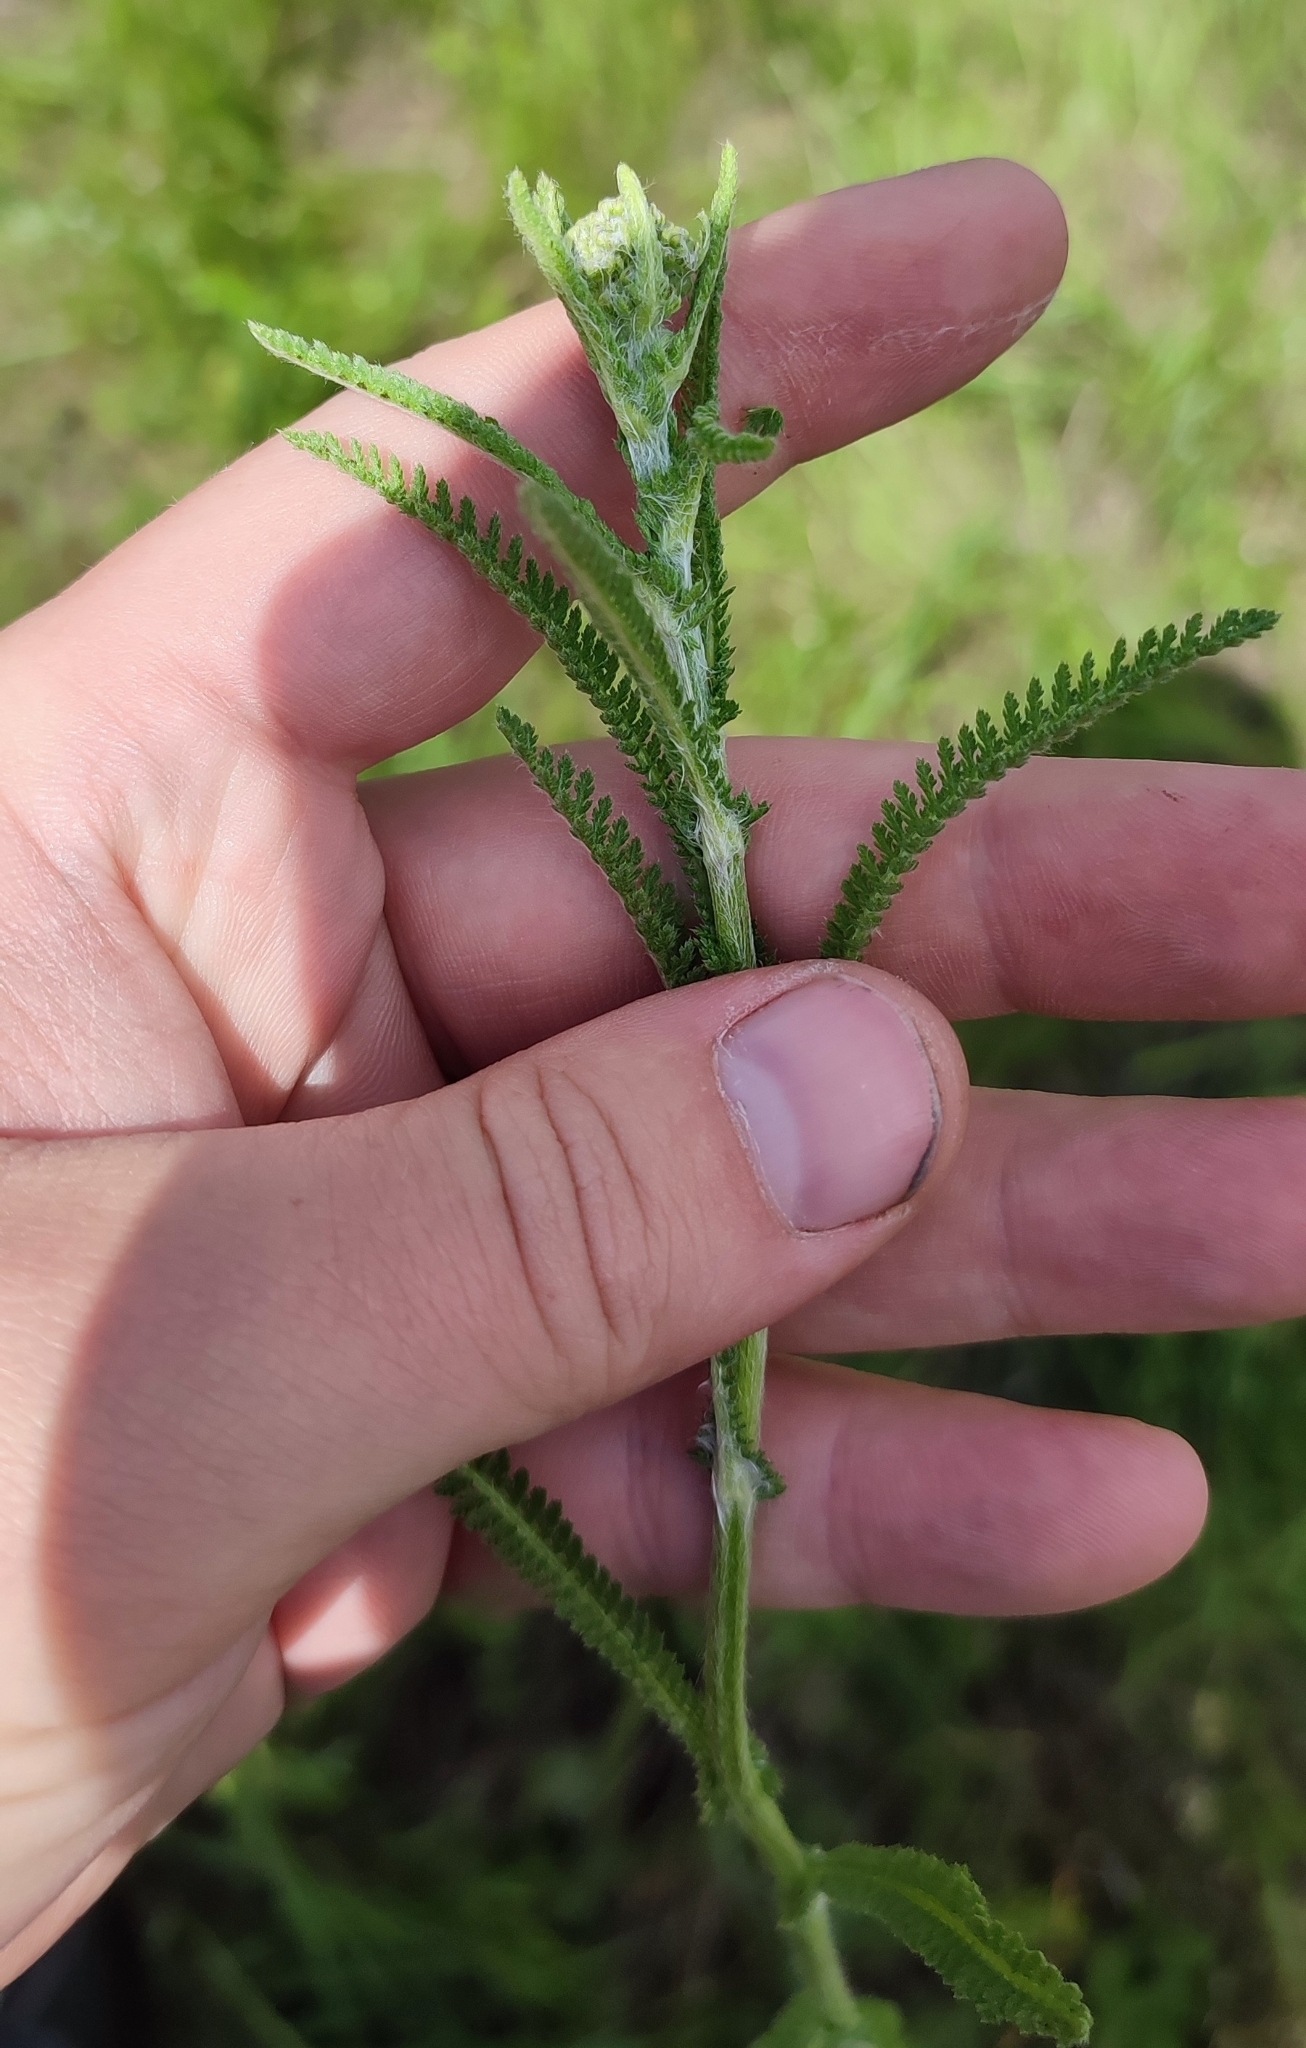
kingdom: Plantae
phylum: Tracheophyta
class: Magnoliopsida
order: Asterales
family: Asteraceae
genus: Achillea
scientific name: Achillea millefolium
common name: Yarrow
